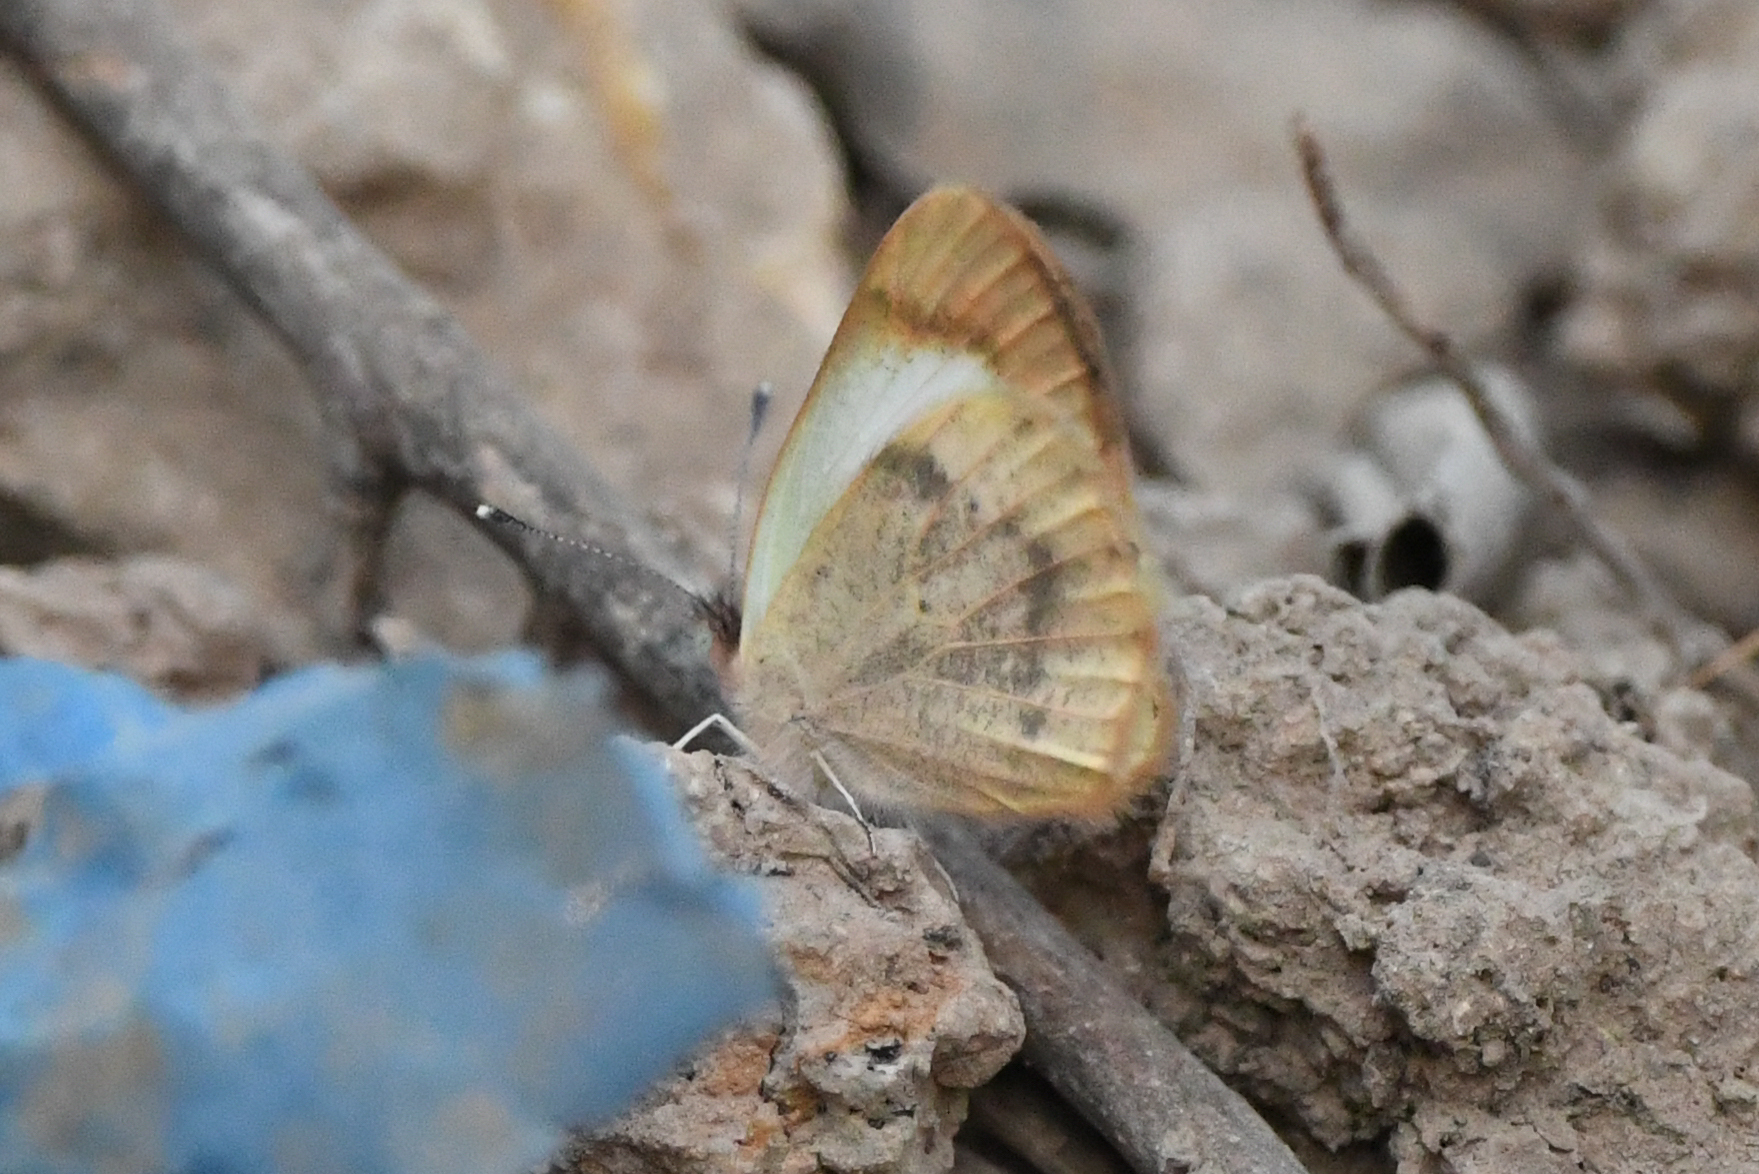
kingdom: Animalia
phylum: Arthropoda
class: Insecta
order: Lepidoptera
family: Pieridae
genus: Colotis
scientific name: Colotis evagore
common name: Desert orange-tip
